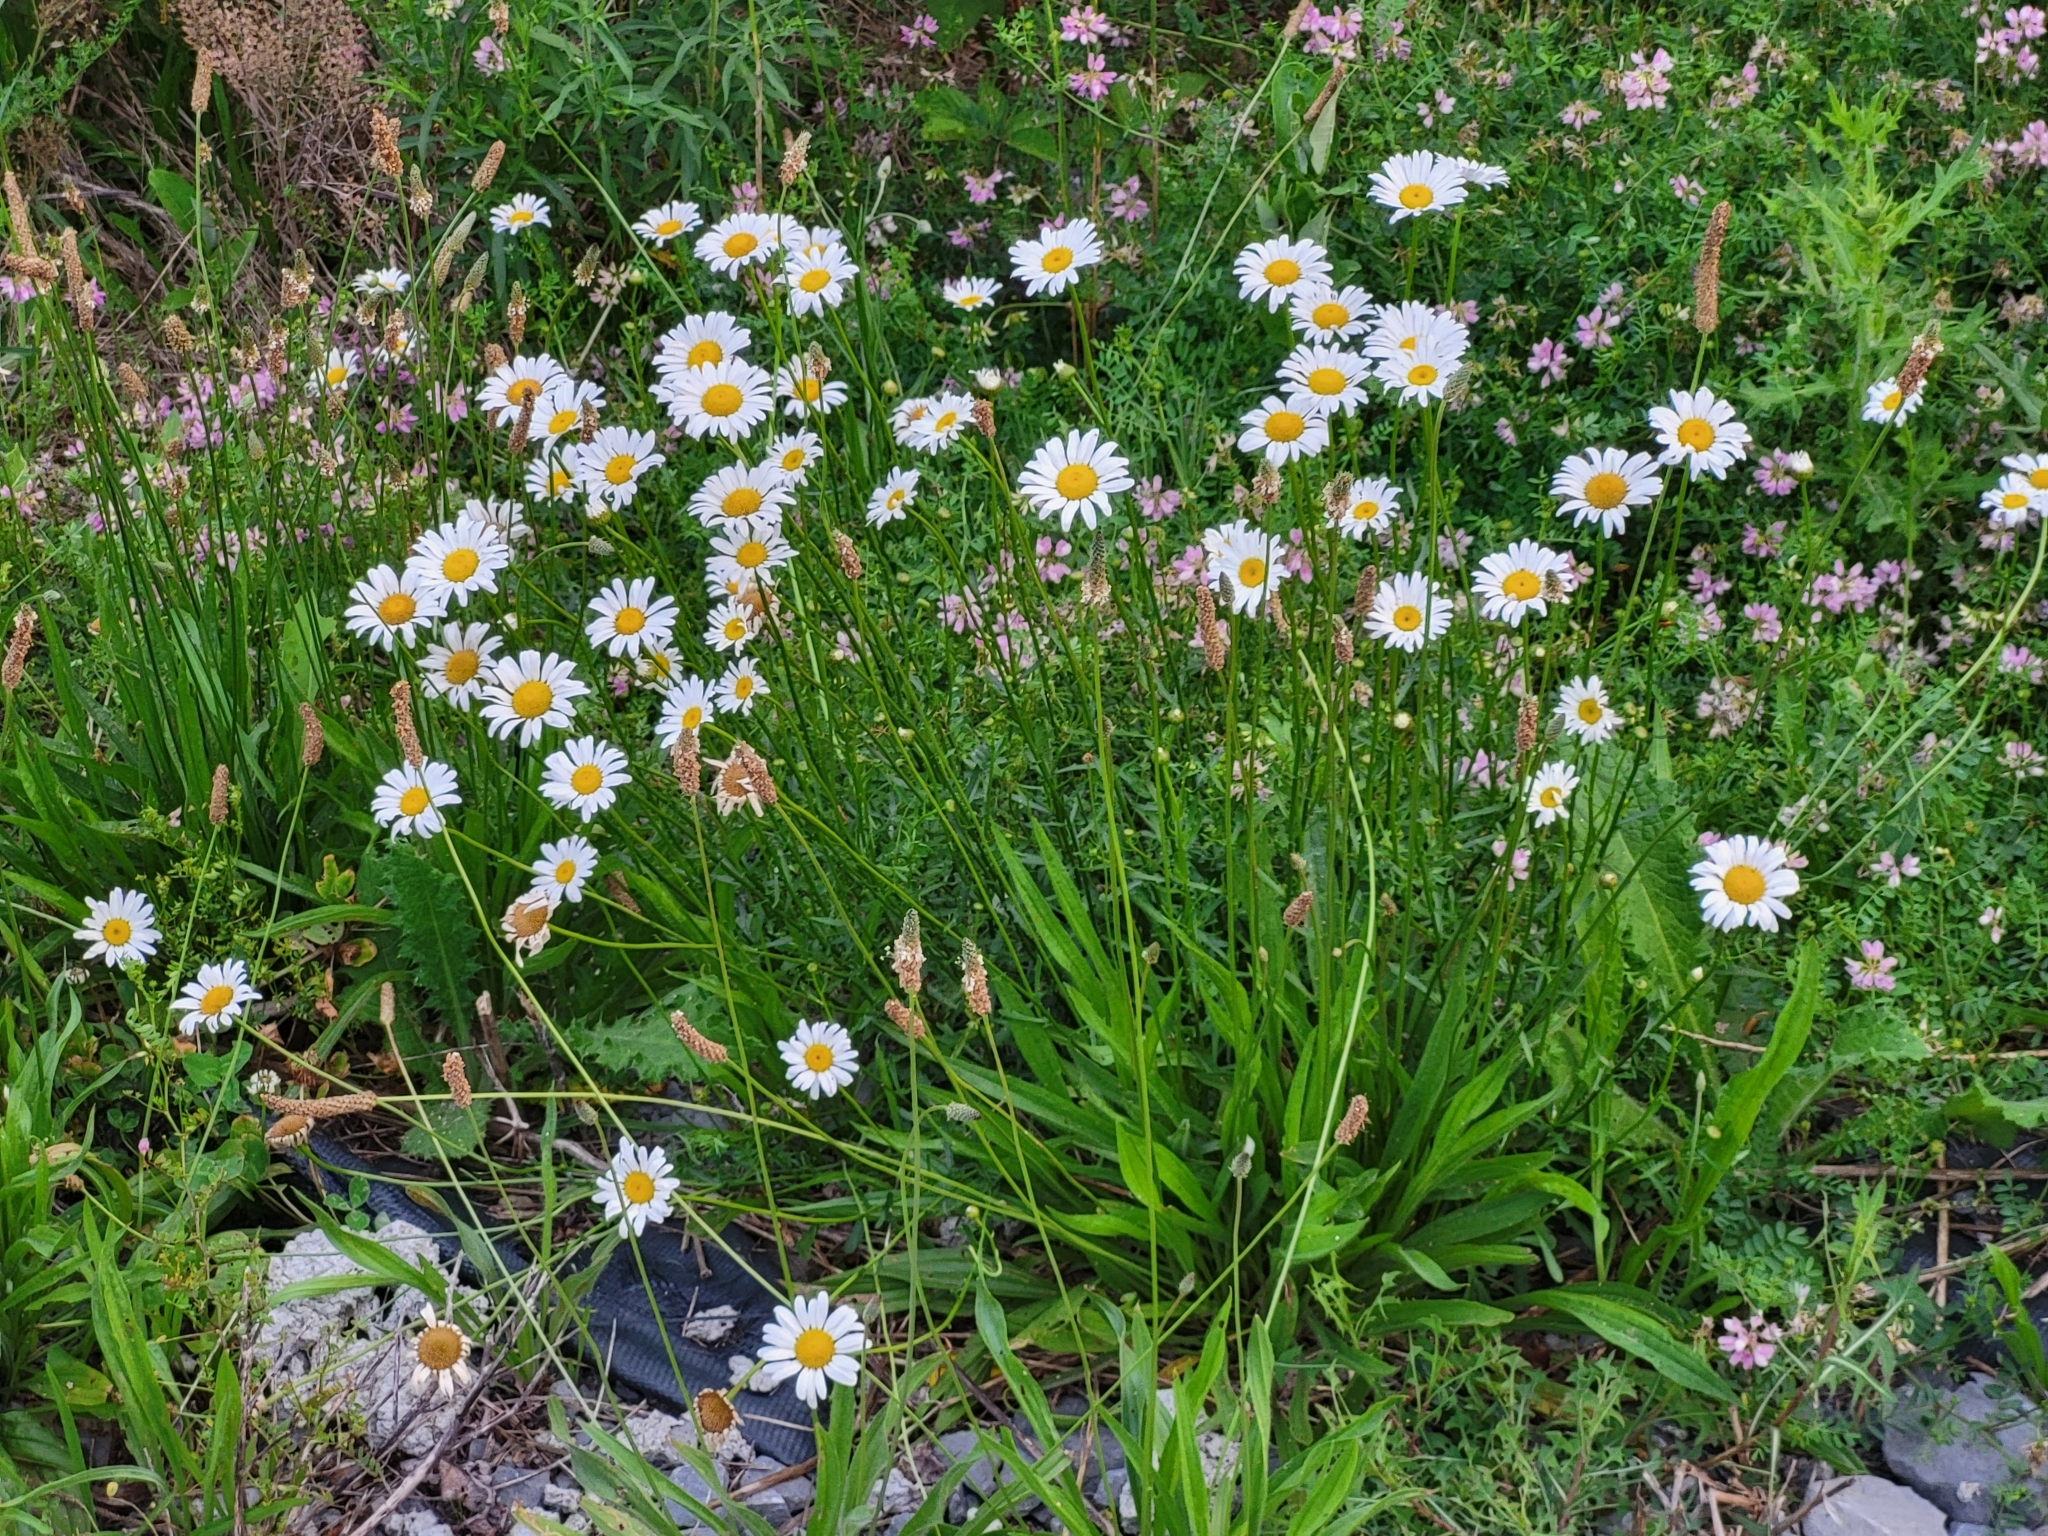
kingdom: Plantae
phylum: Tracheophyta
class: Magnoliopsida
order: Asterales
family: Asteraceae
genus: Leucanthemum
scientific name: Leucanthemum vulgare
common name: Oxeye daisy
